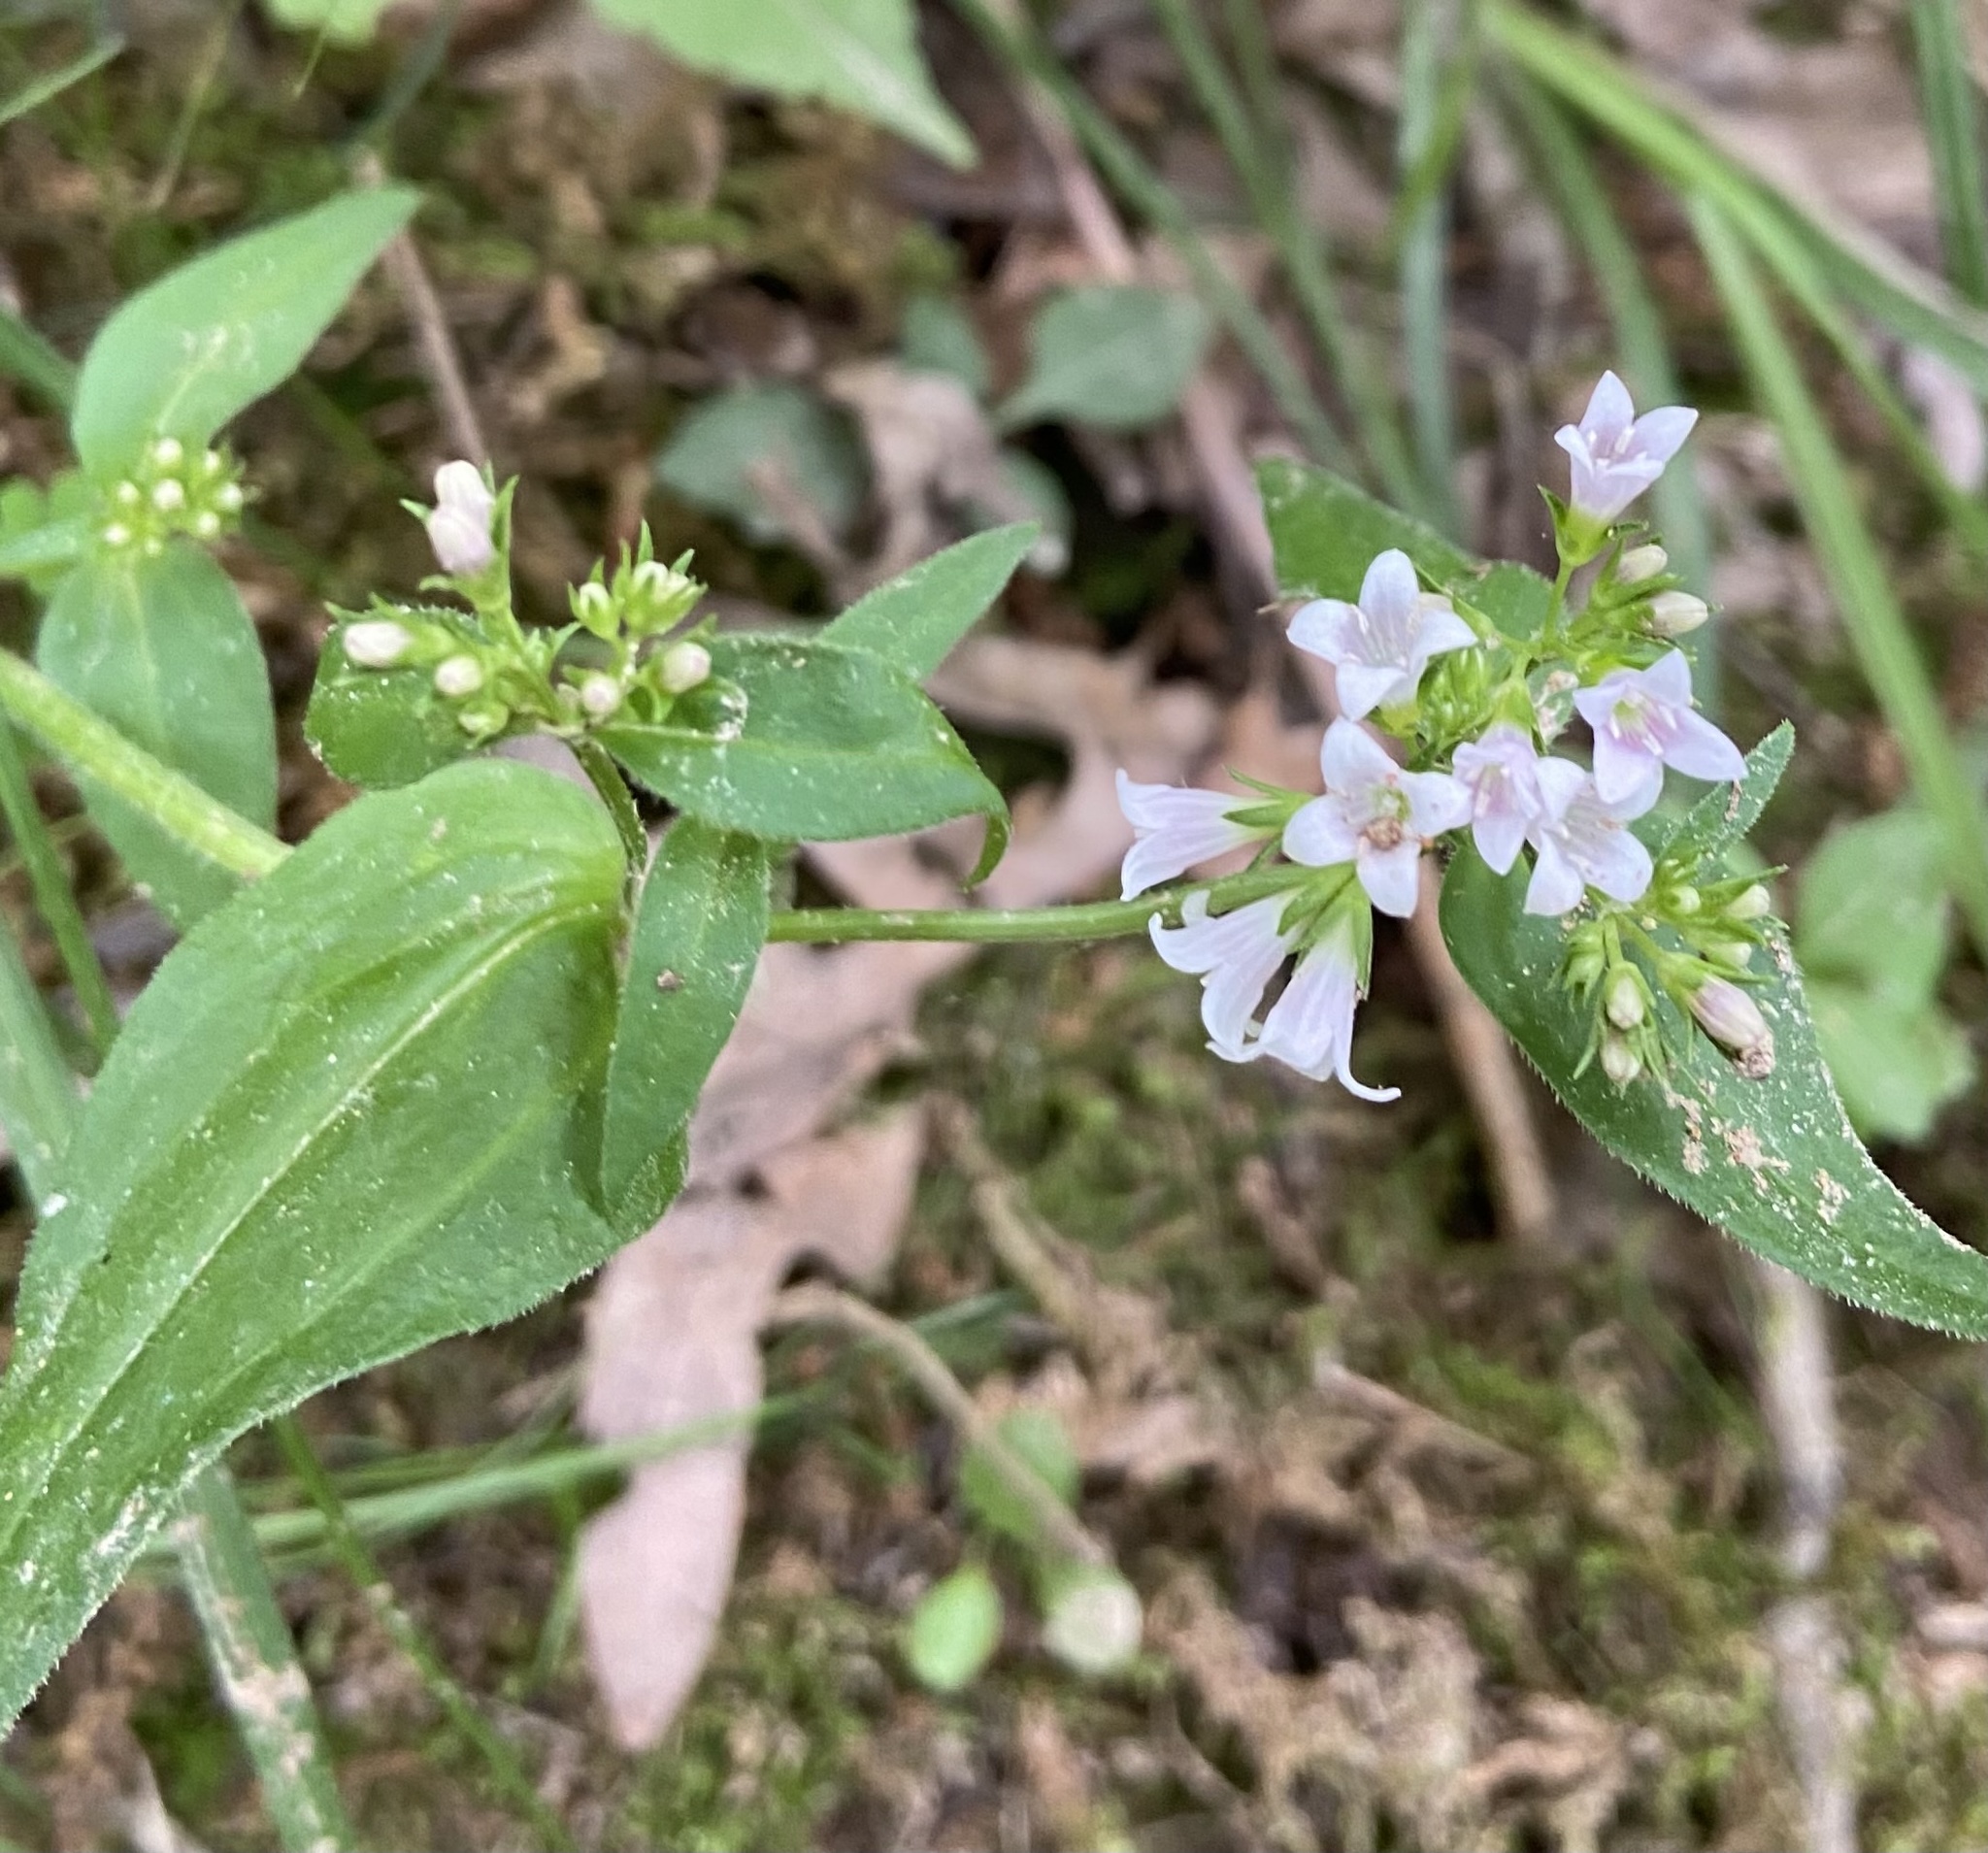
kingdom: Plantae
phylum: Tracheophyta
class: Magnoliopsida
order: Gentianales
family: Rubiaceae
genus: Houstonia
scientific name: Houstonia purpurea
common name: Summer bluet
